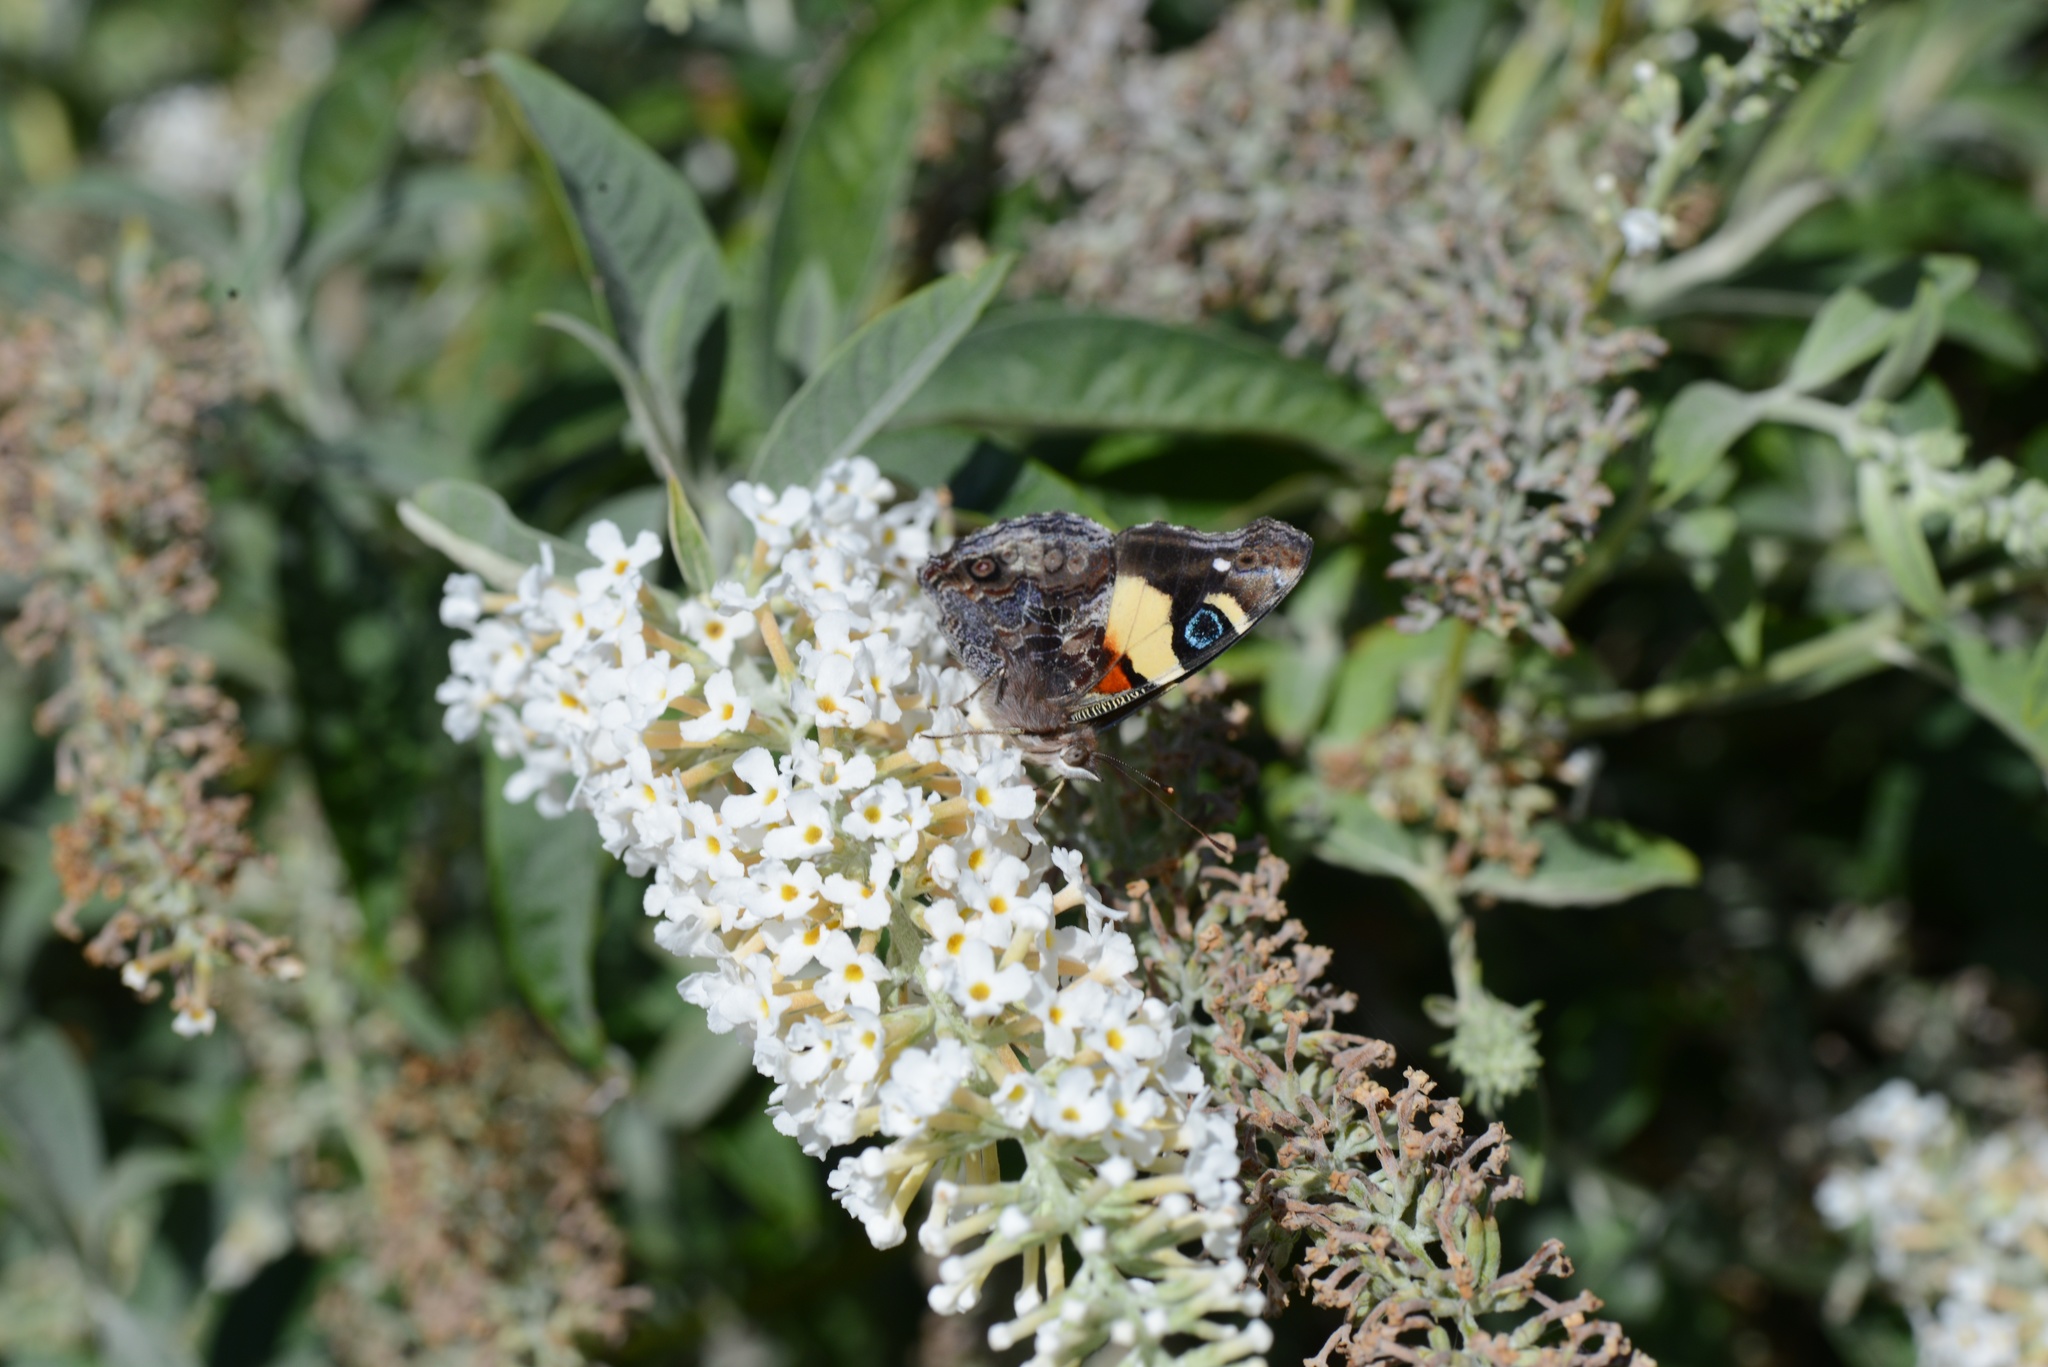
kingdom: Animalia
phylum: Arthropoda
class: Insecta
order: Lepidoptera
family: Nymphalidae
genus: Vanessa
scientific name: Vanessa itea
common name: Yellow admiral
